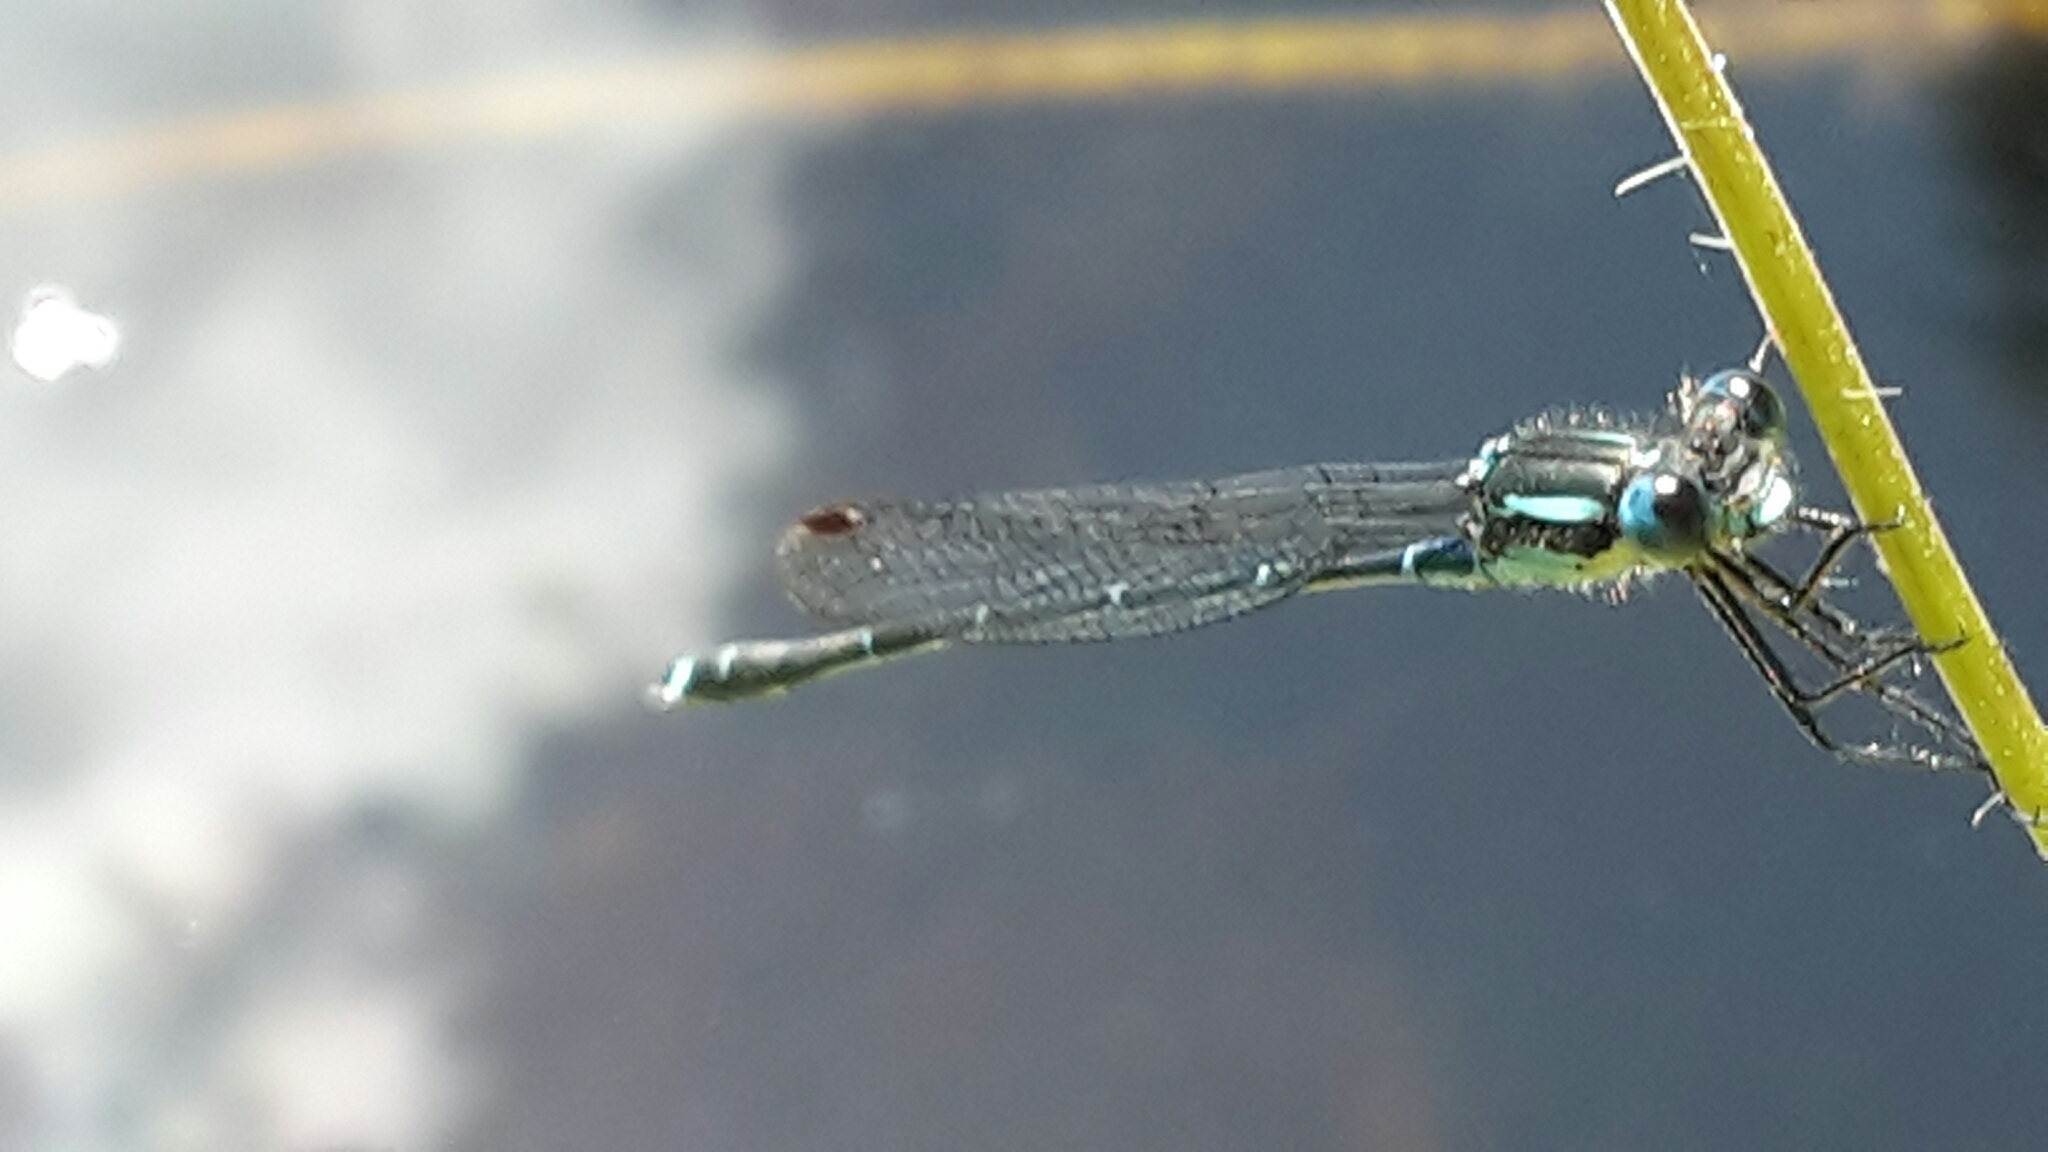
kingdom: Animalia
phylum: Arthropoda
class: Insecta
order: Odonata
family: Lestidae
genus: Austrolestes
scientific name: Austrolestes colensonis
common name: Blue damselfly
